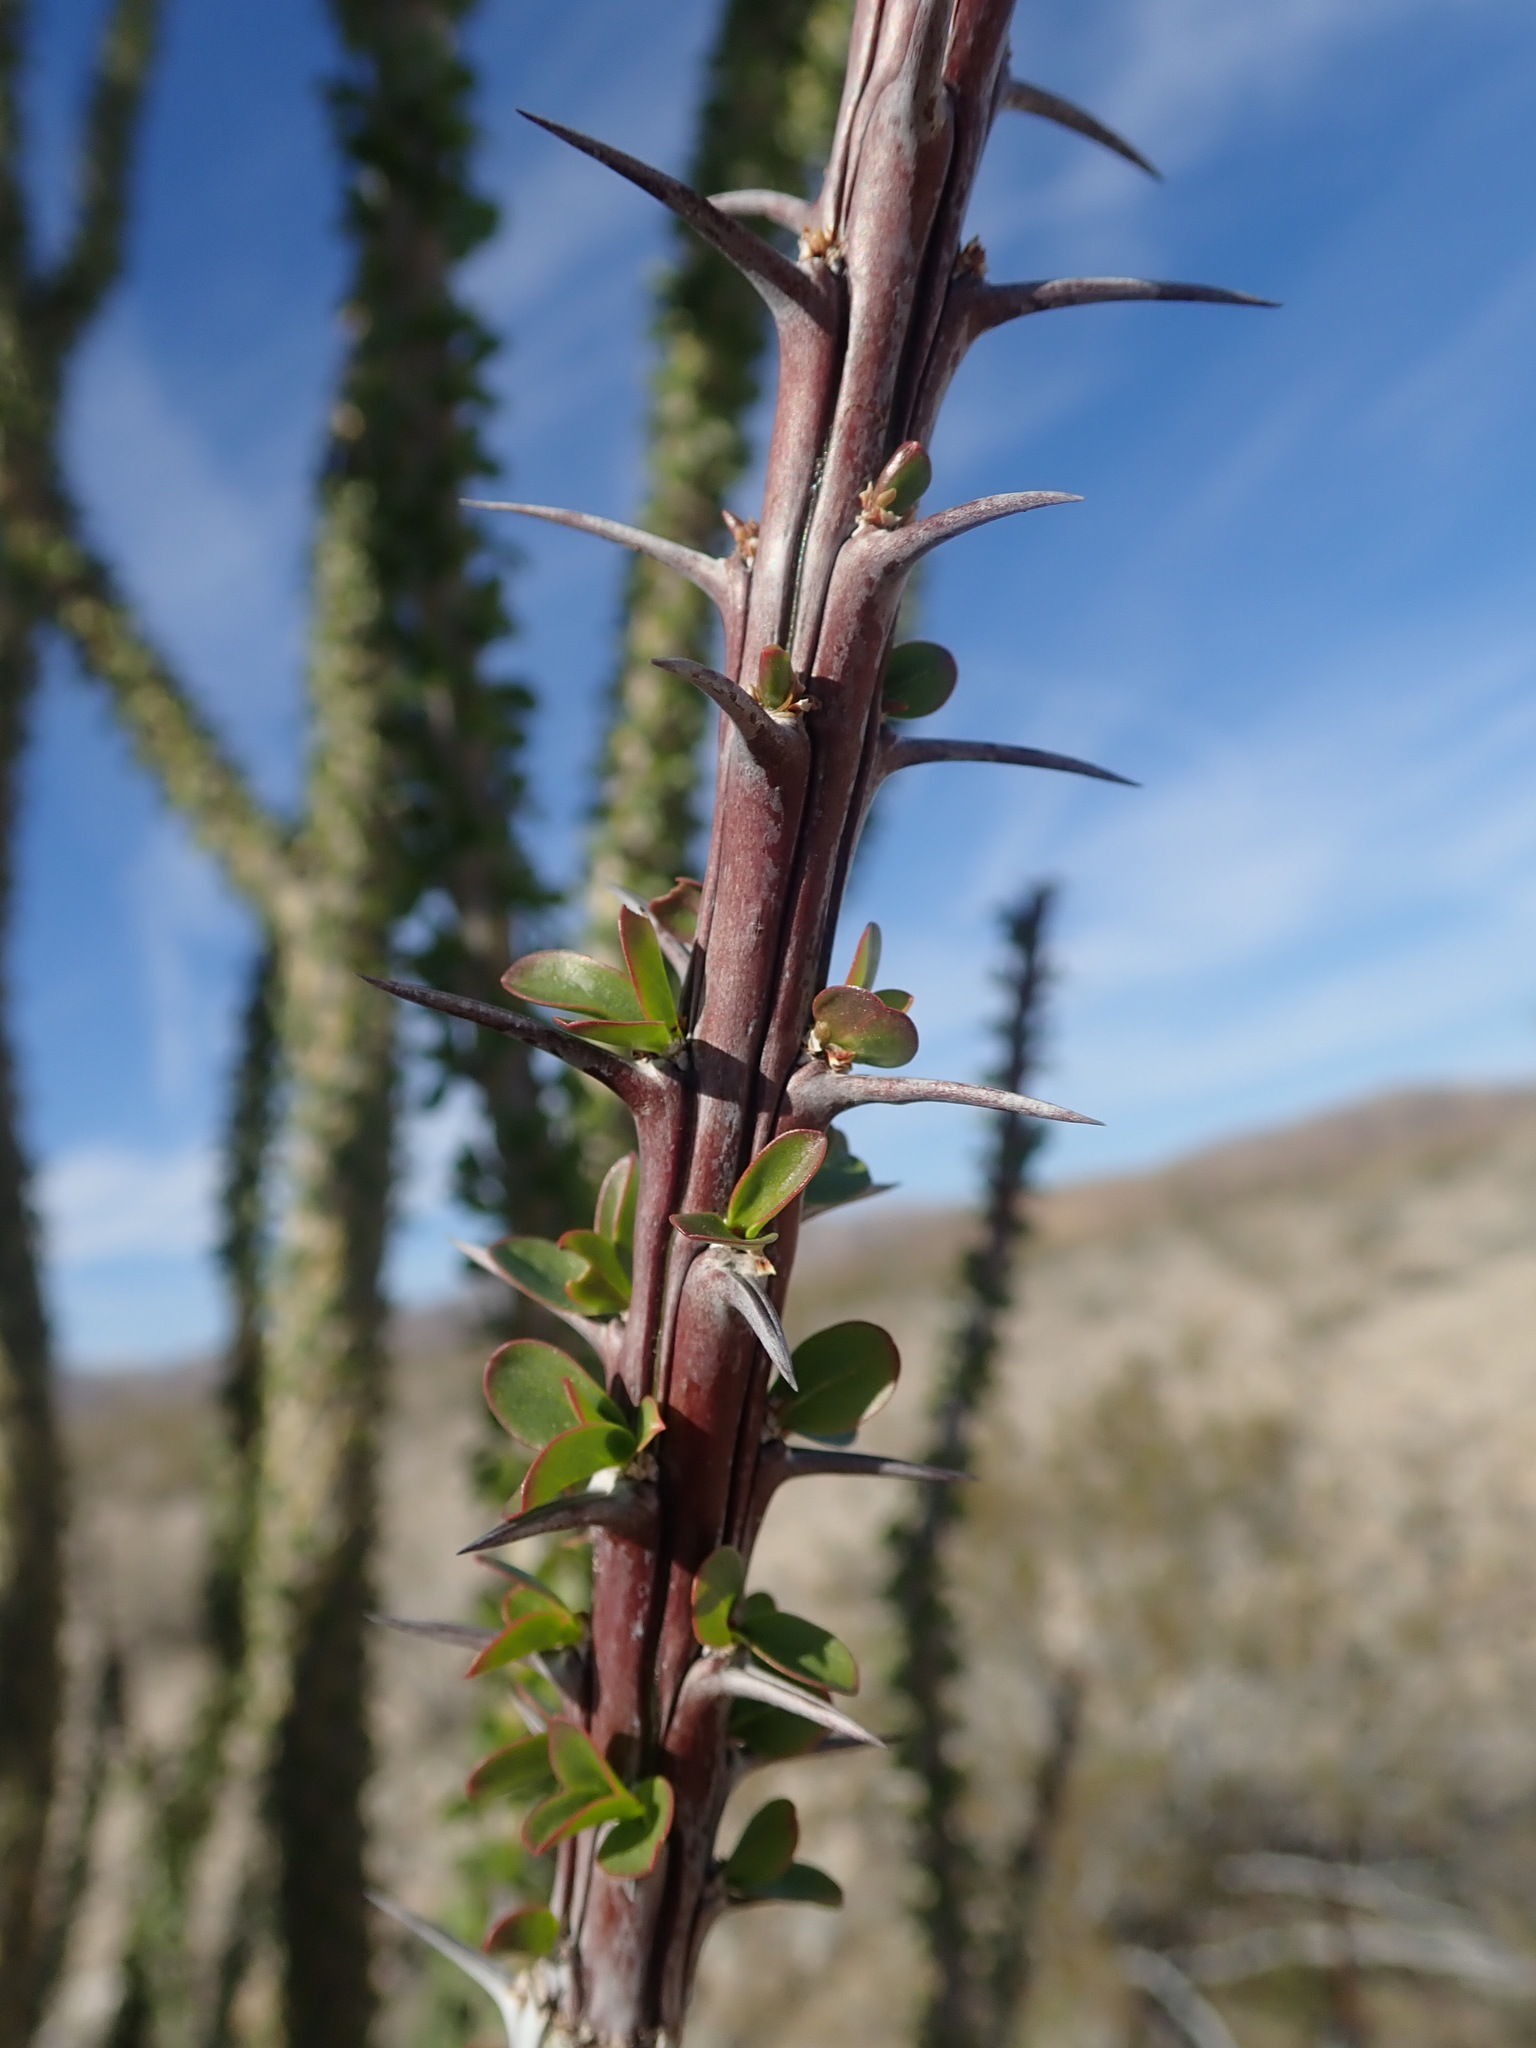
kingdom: Plantae
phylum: Tracheophyta
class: Magnoliopsida
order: Ericales
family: Fouquieriaceae
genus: Fouquieria
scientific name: Fouquieria splendens
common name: Vine-cactus
